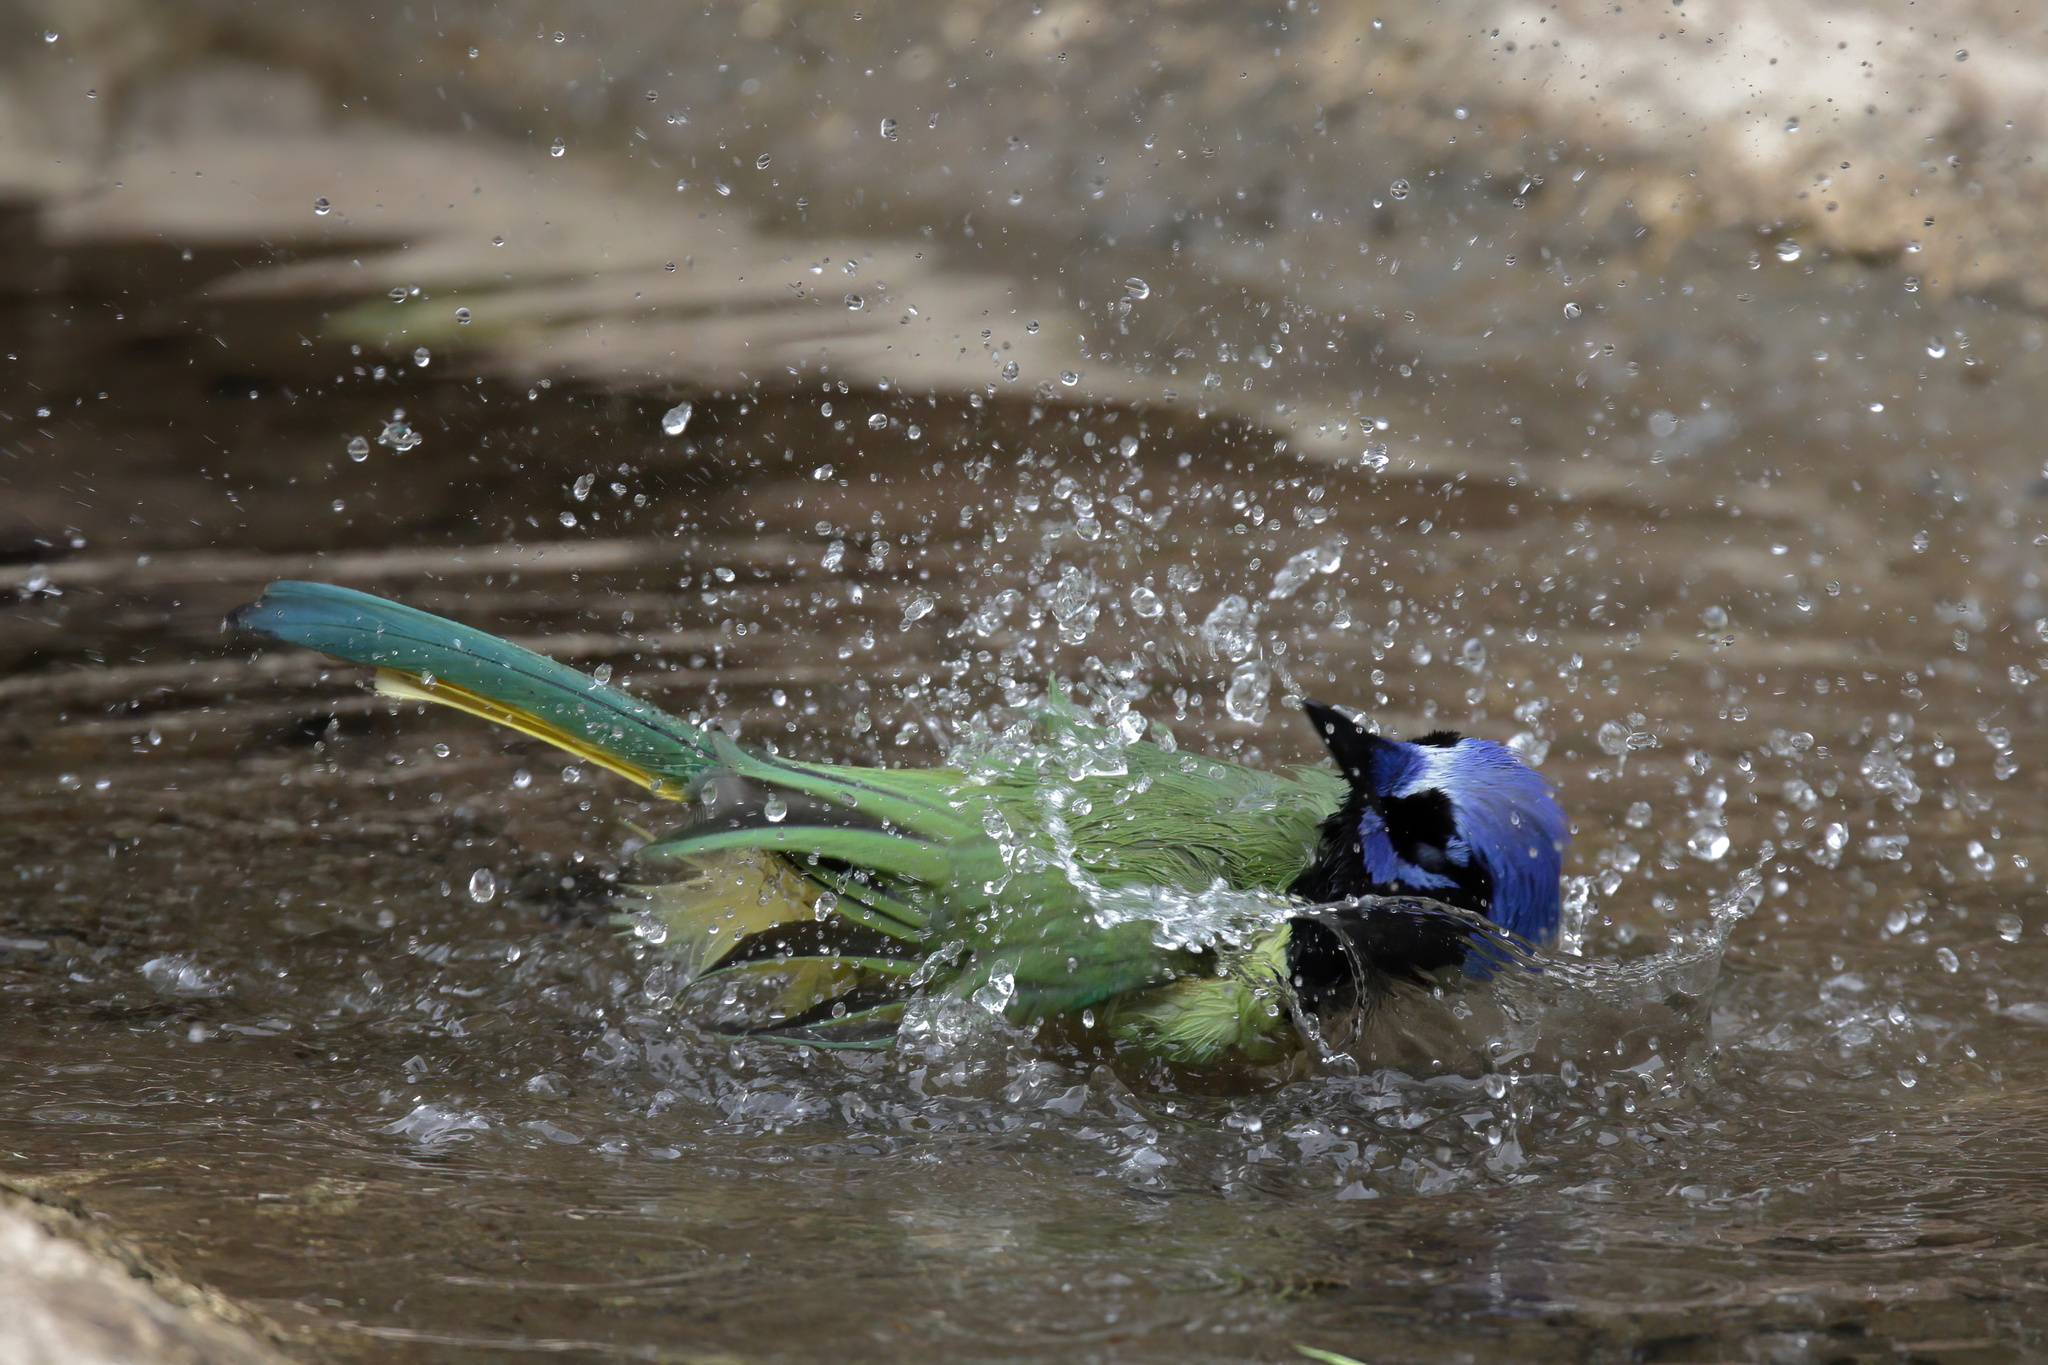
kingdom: Animalia
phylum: Chordata
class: Aves
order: Passeriformes
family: Corvidae
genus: Cyanocorax
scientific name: Cyanocorax yncas
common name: Green jay
